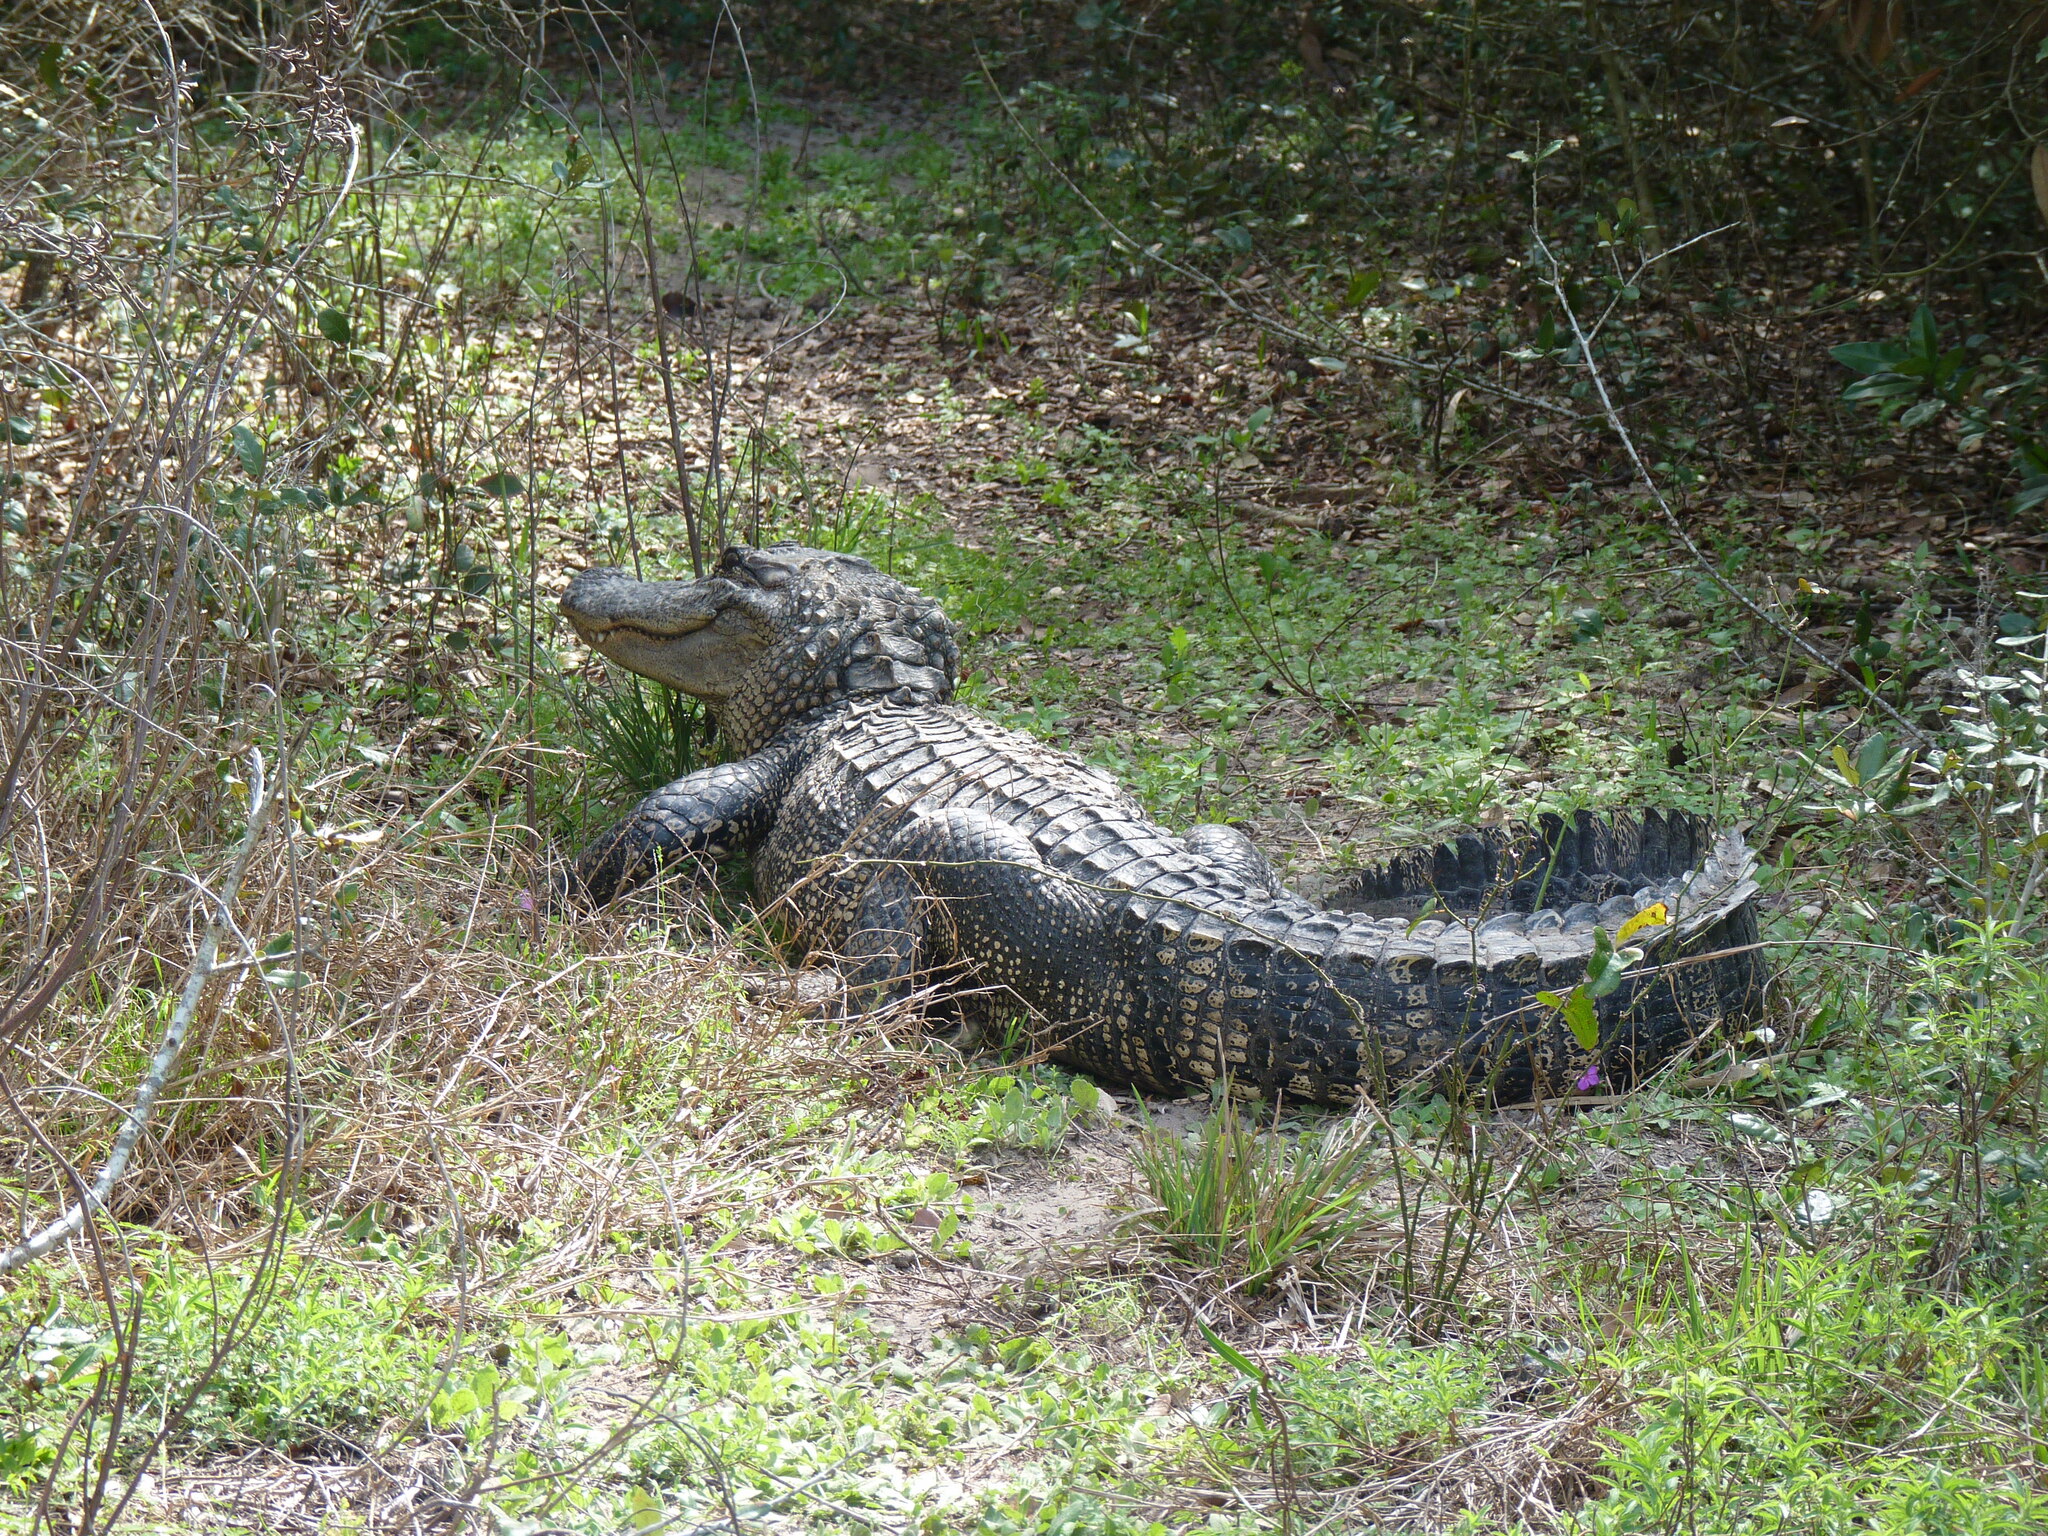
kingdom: Animalia
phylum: Chordata
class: Crocodylia
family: Alligatoridae
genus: Alligator
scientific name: Alligator mississippiensis
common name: American alligator
